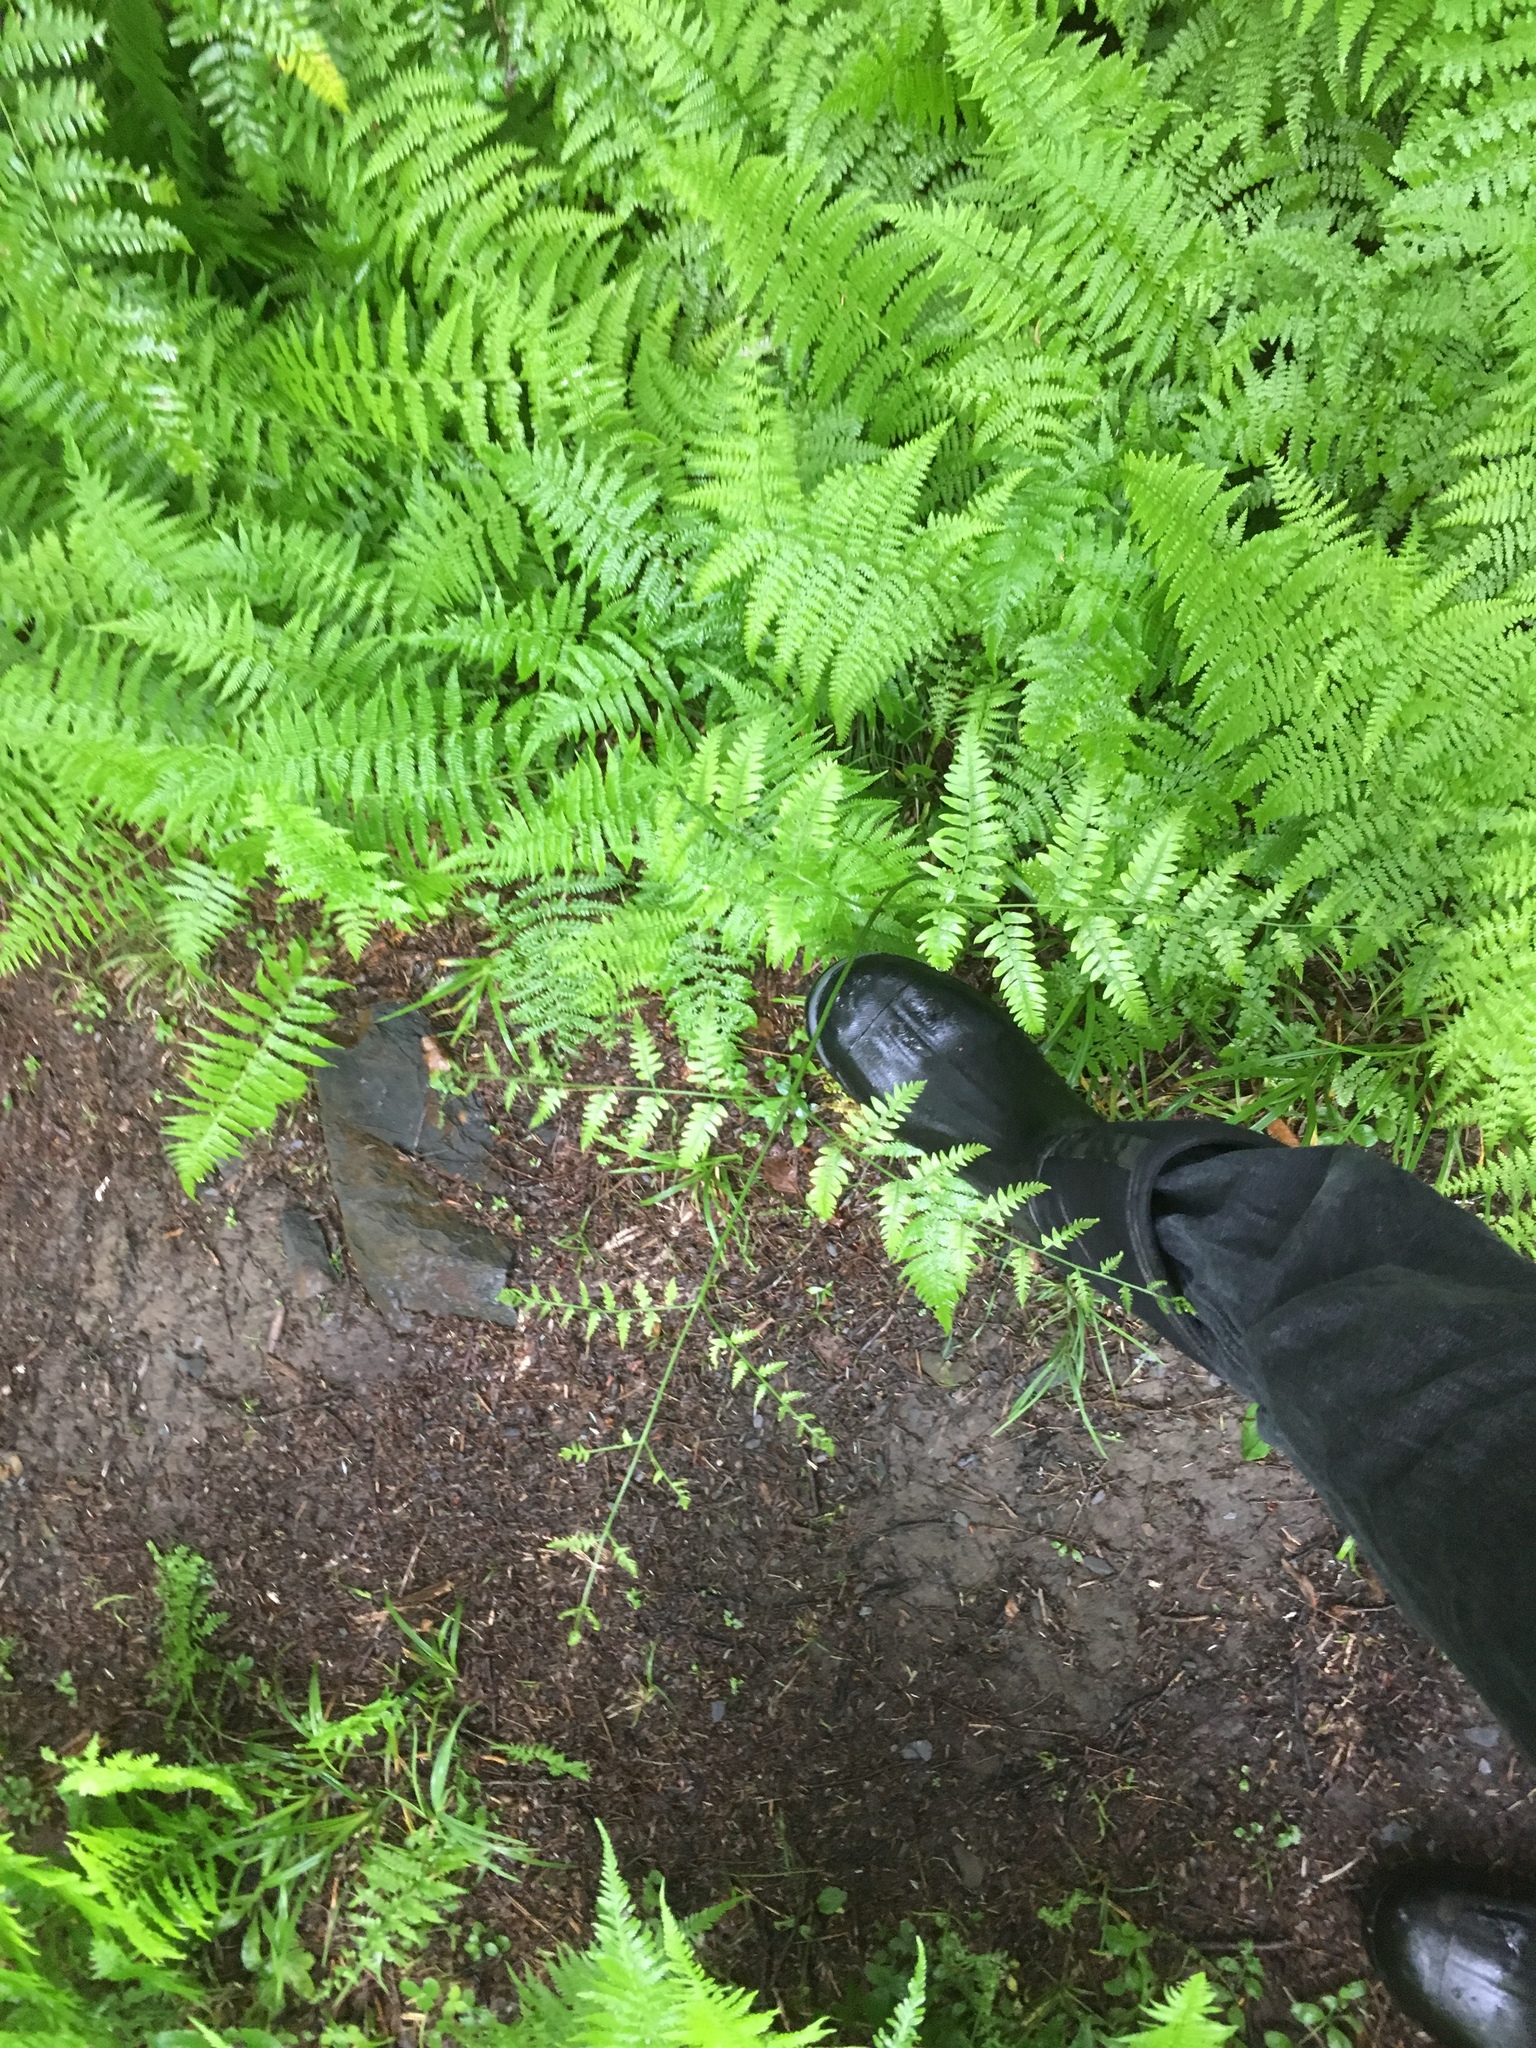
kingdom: Plantae
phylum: Tracheophyta
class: Polypodiopsida
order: Polypodiales
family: Dennstaedtiaceae
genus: Pteridium
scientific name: Pteridium aquilinum
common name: Bracken
